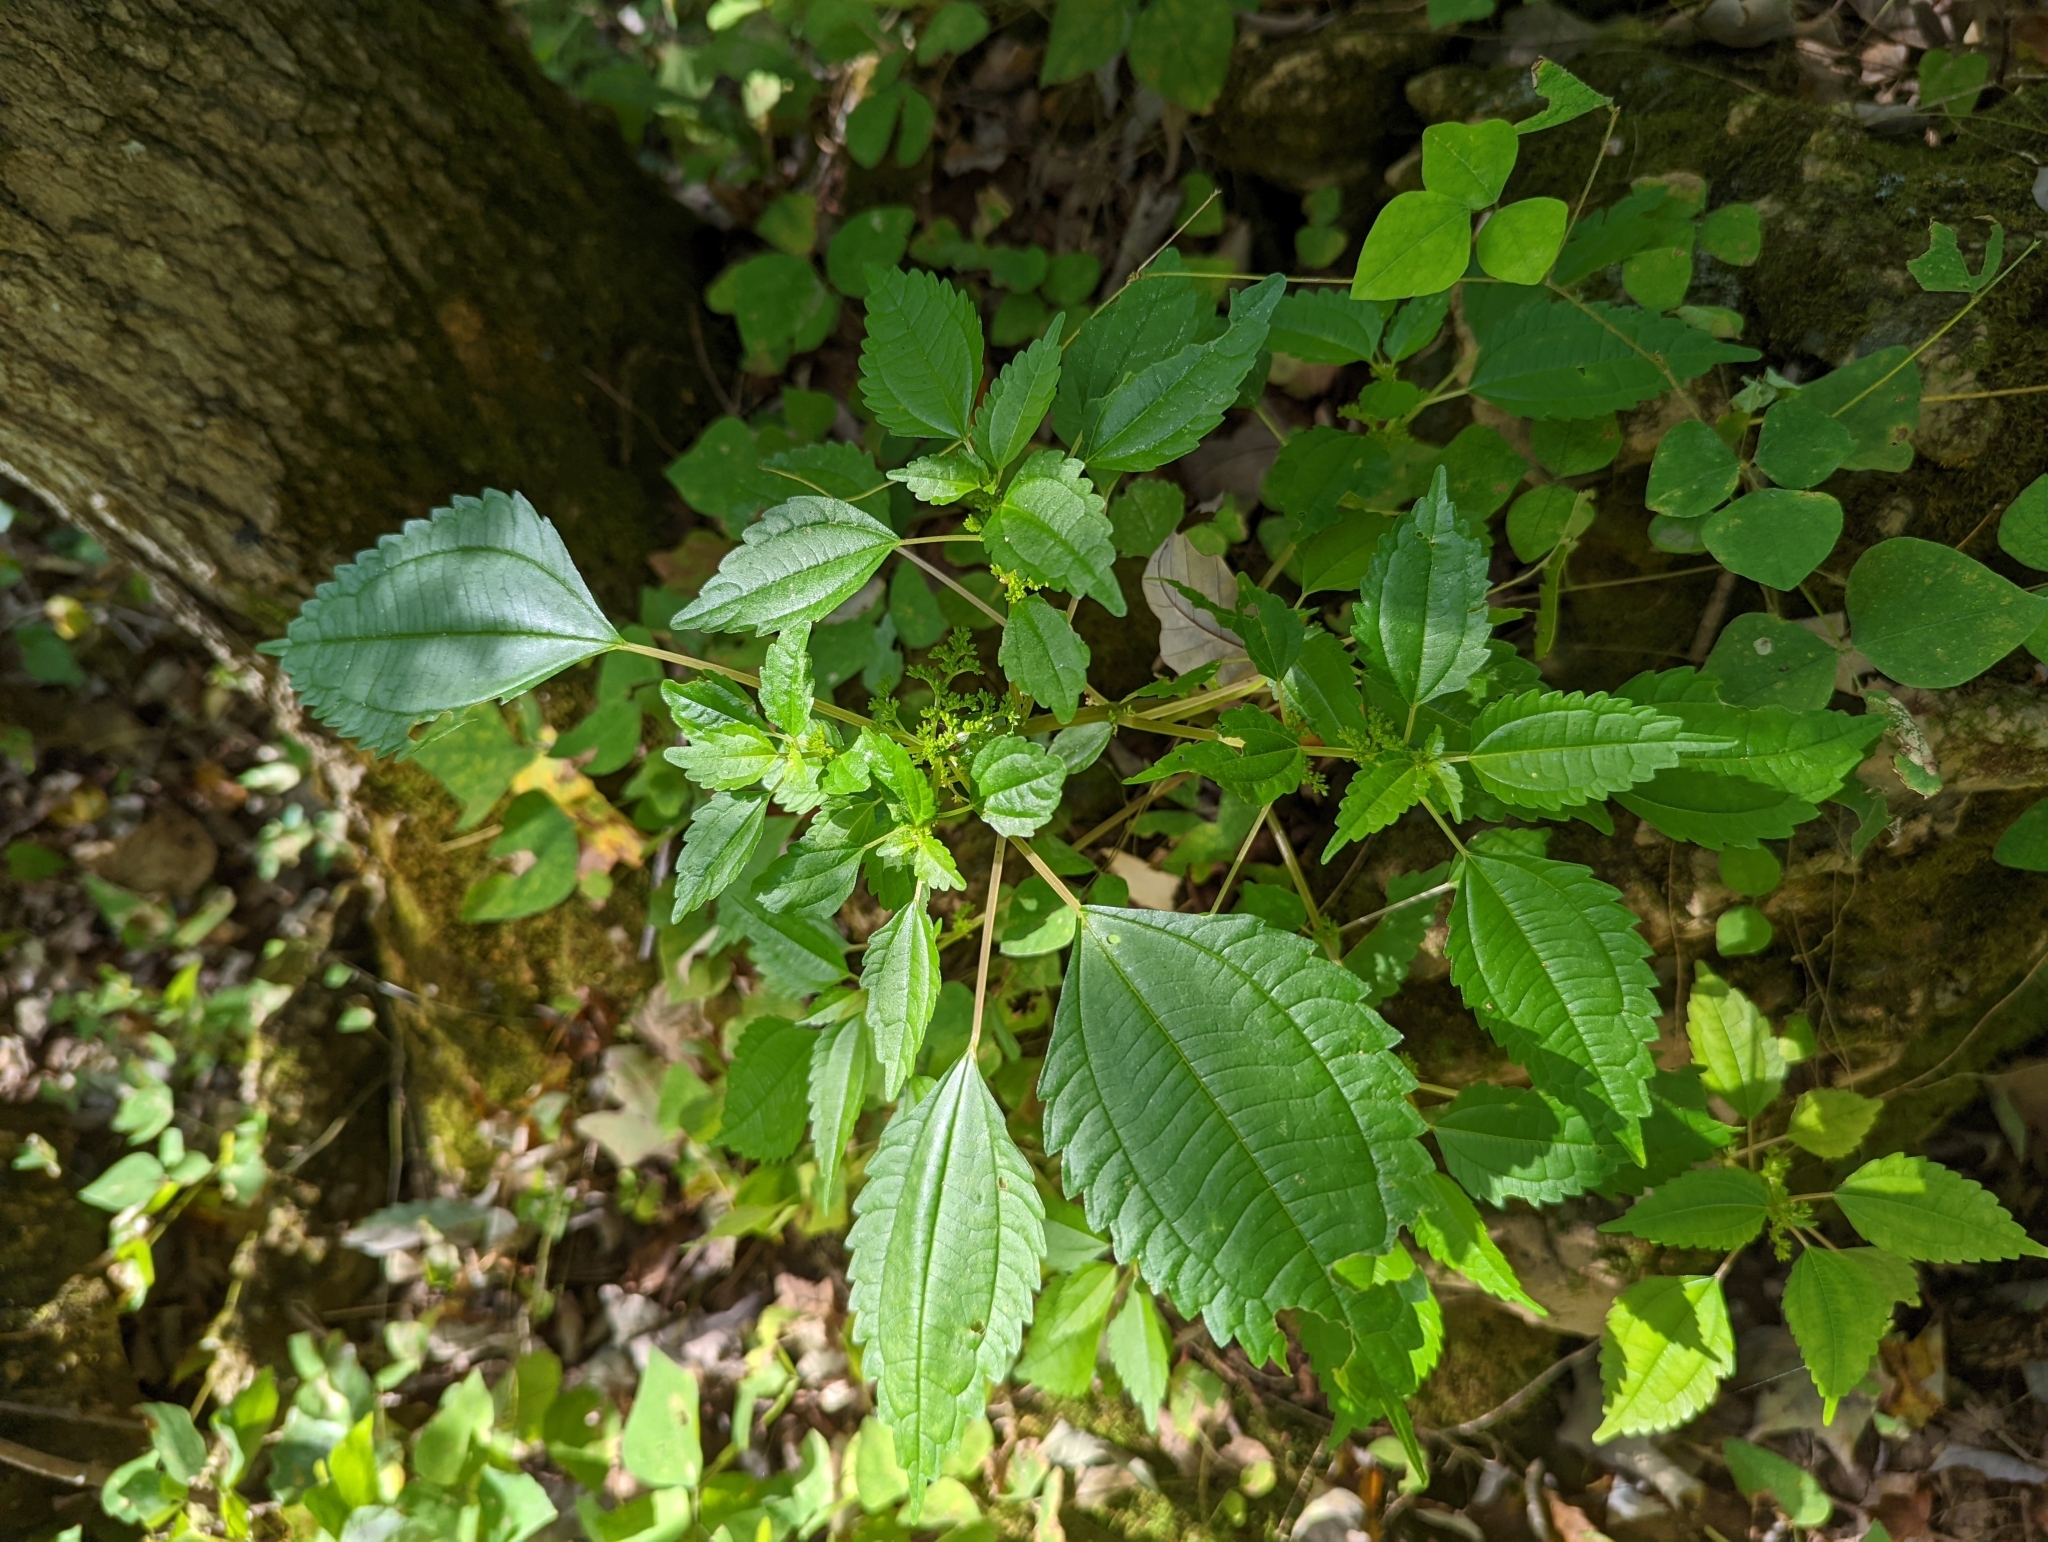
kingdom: Plantae
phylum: Tracheophyta
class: Magnoliopsida
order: Rosales
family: Urticaceae
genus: Pilea
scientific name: Pilea pumila
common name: Clearweed
